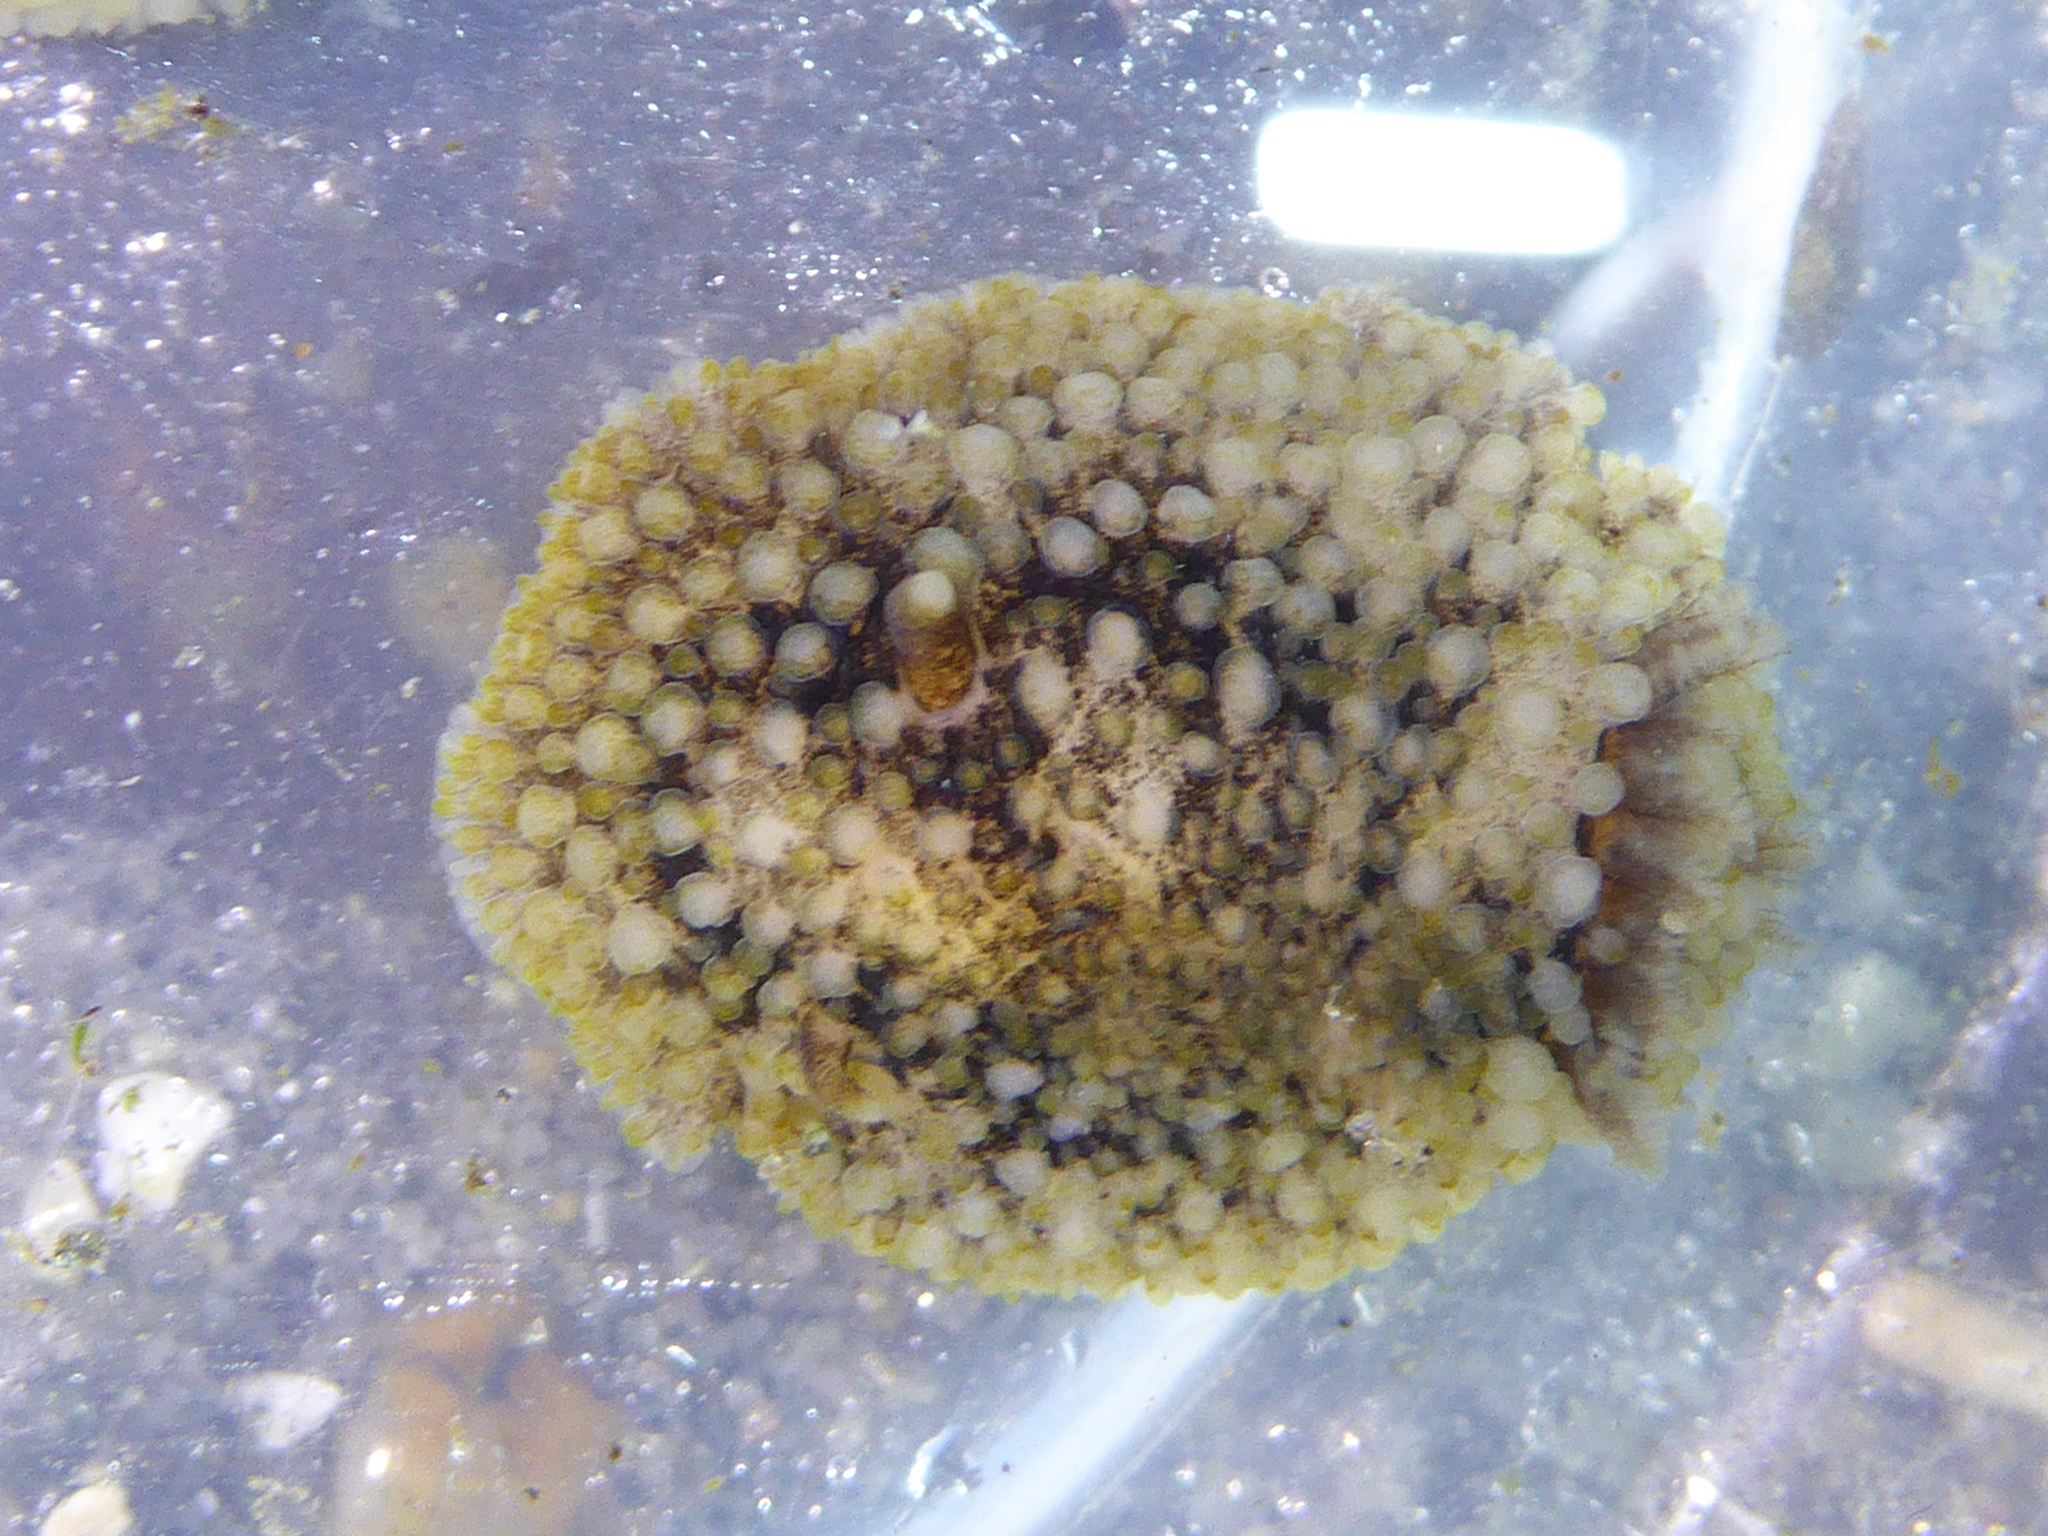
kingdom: Animalia
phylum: Mollusca
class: Gastropoda
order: Nudibranchia
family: Onchidorididae
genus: Onchidoris
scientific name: Onchidoris bilamellata
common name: Barnacle-eating onchidoris
